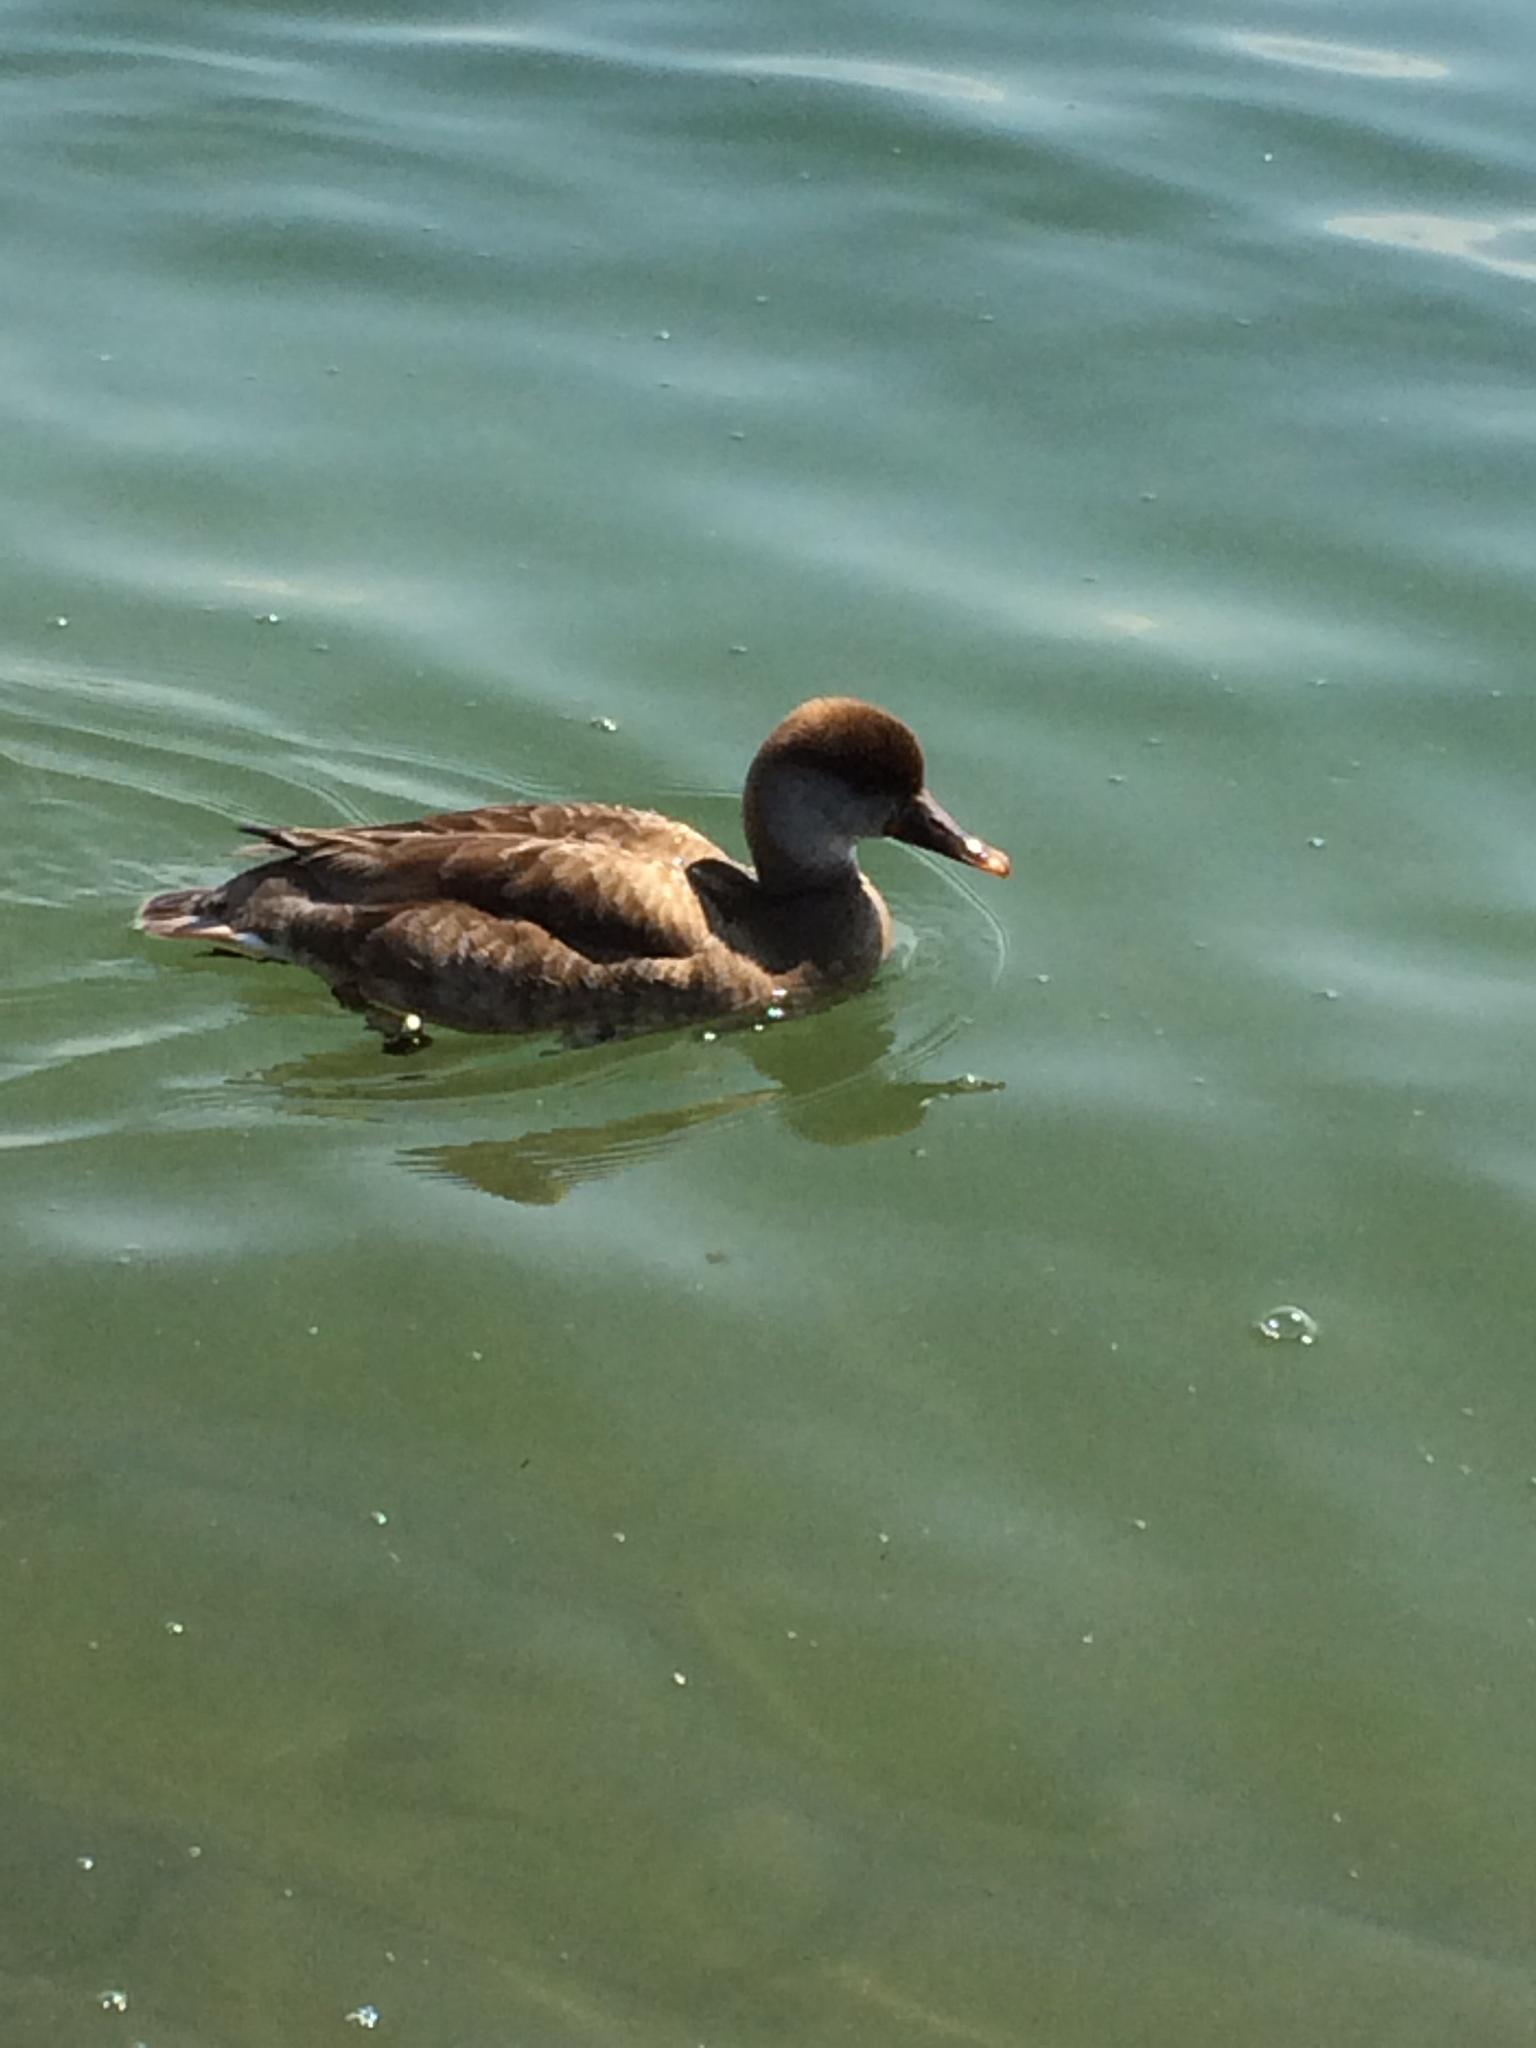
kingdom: Animalia
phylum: Chordata
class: Aves
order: Anseriformes
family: Anatidae
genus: Netta
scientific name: Netta rufina
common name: Red-crested pochard
